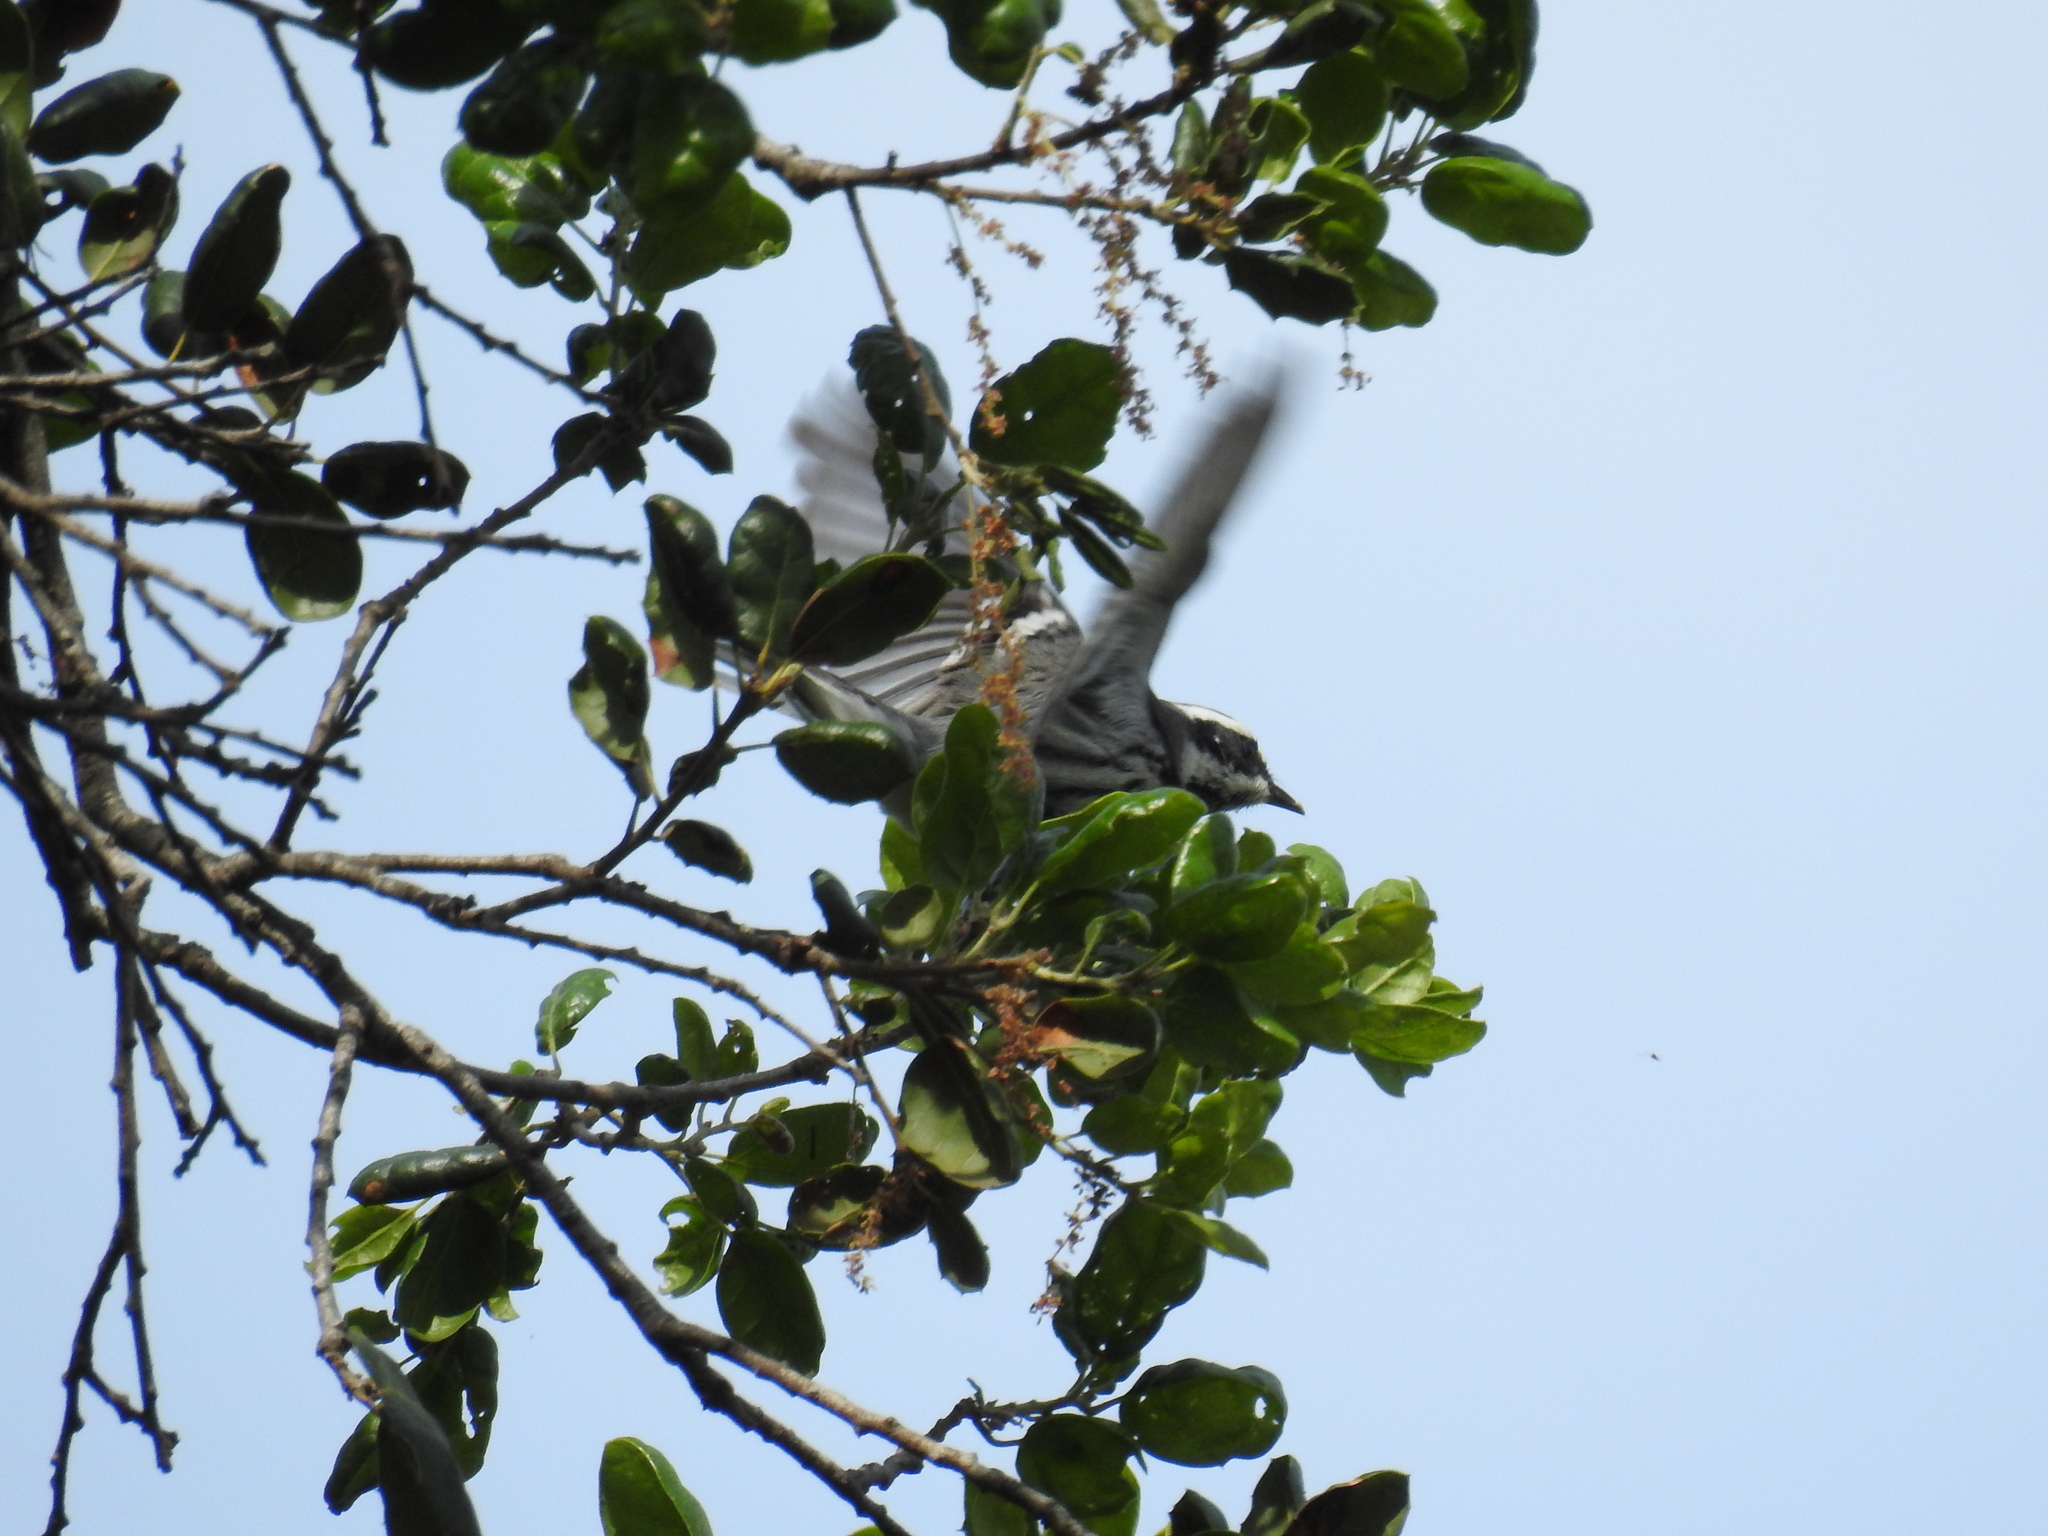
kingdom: Animalia
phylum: Chordata
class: Aves
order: Passeriformes
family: Parulidae
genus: Setophaga
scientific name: Setophaga nigrescens
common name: Black-throated gray warbler
